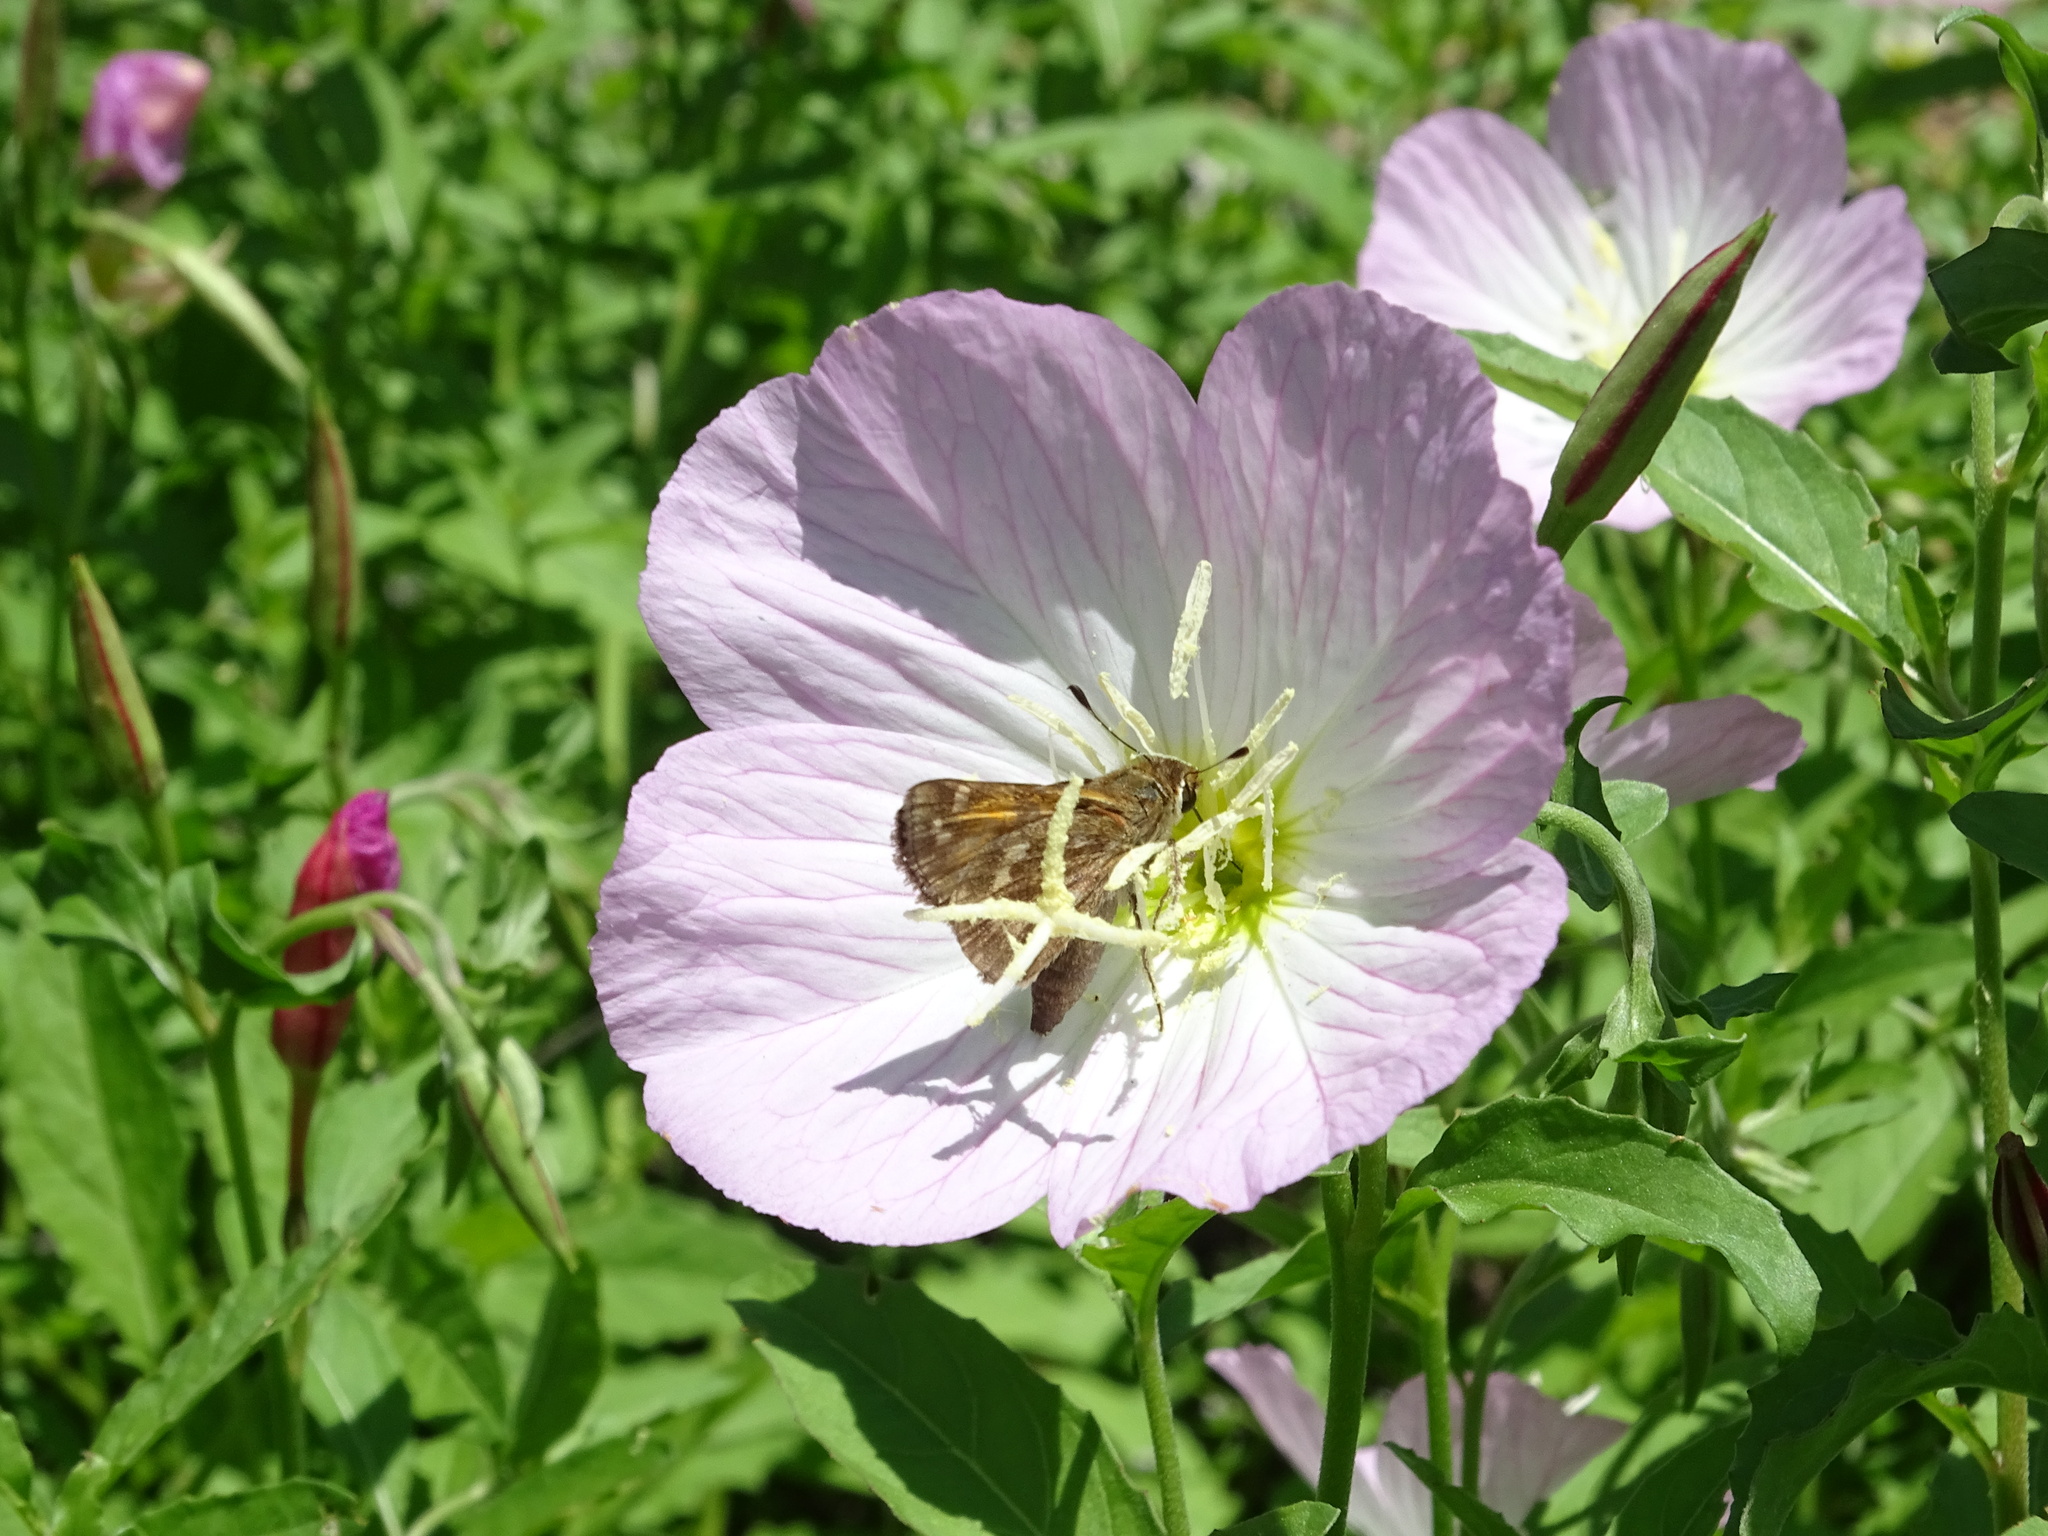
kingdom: Animalia
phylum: Arthropoda
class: Insecta
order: Lepidoptera
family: Hesperiidae
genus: Atalopedes
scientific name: Atalopedes
